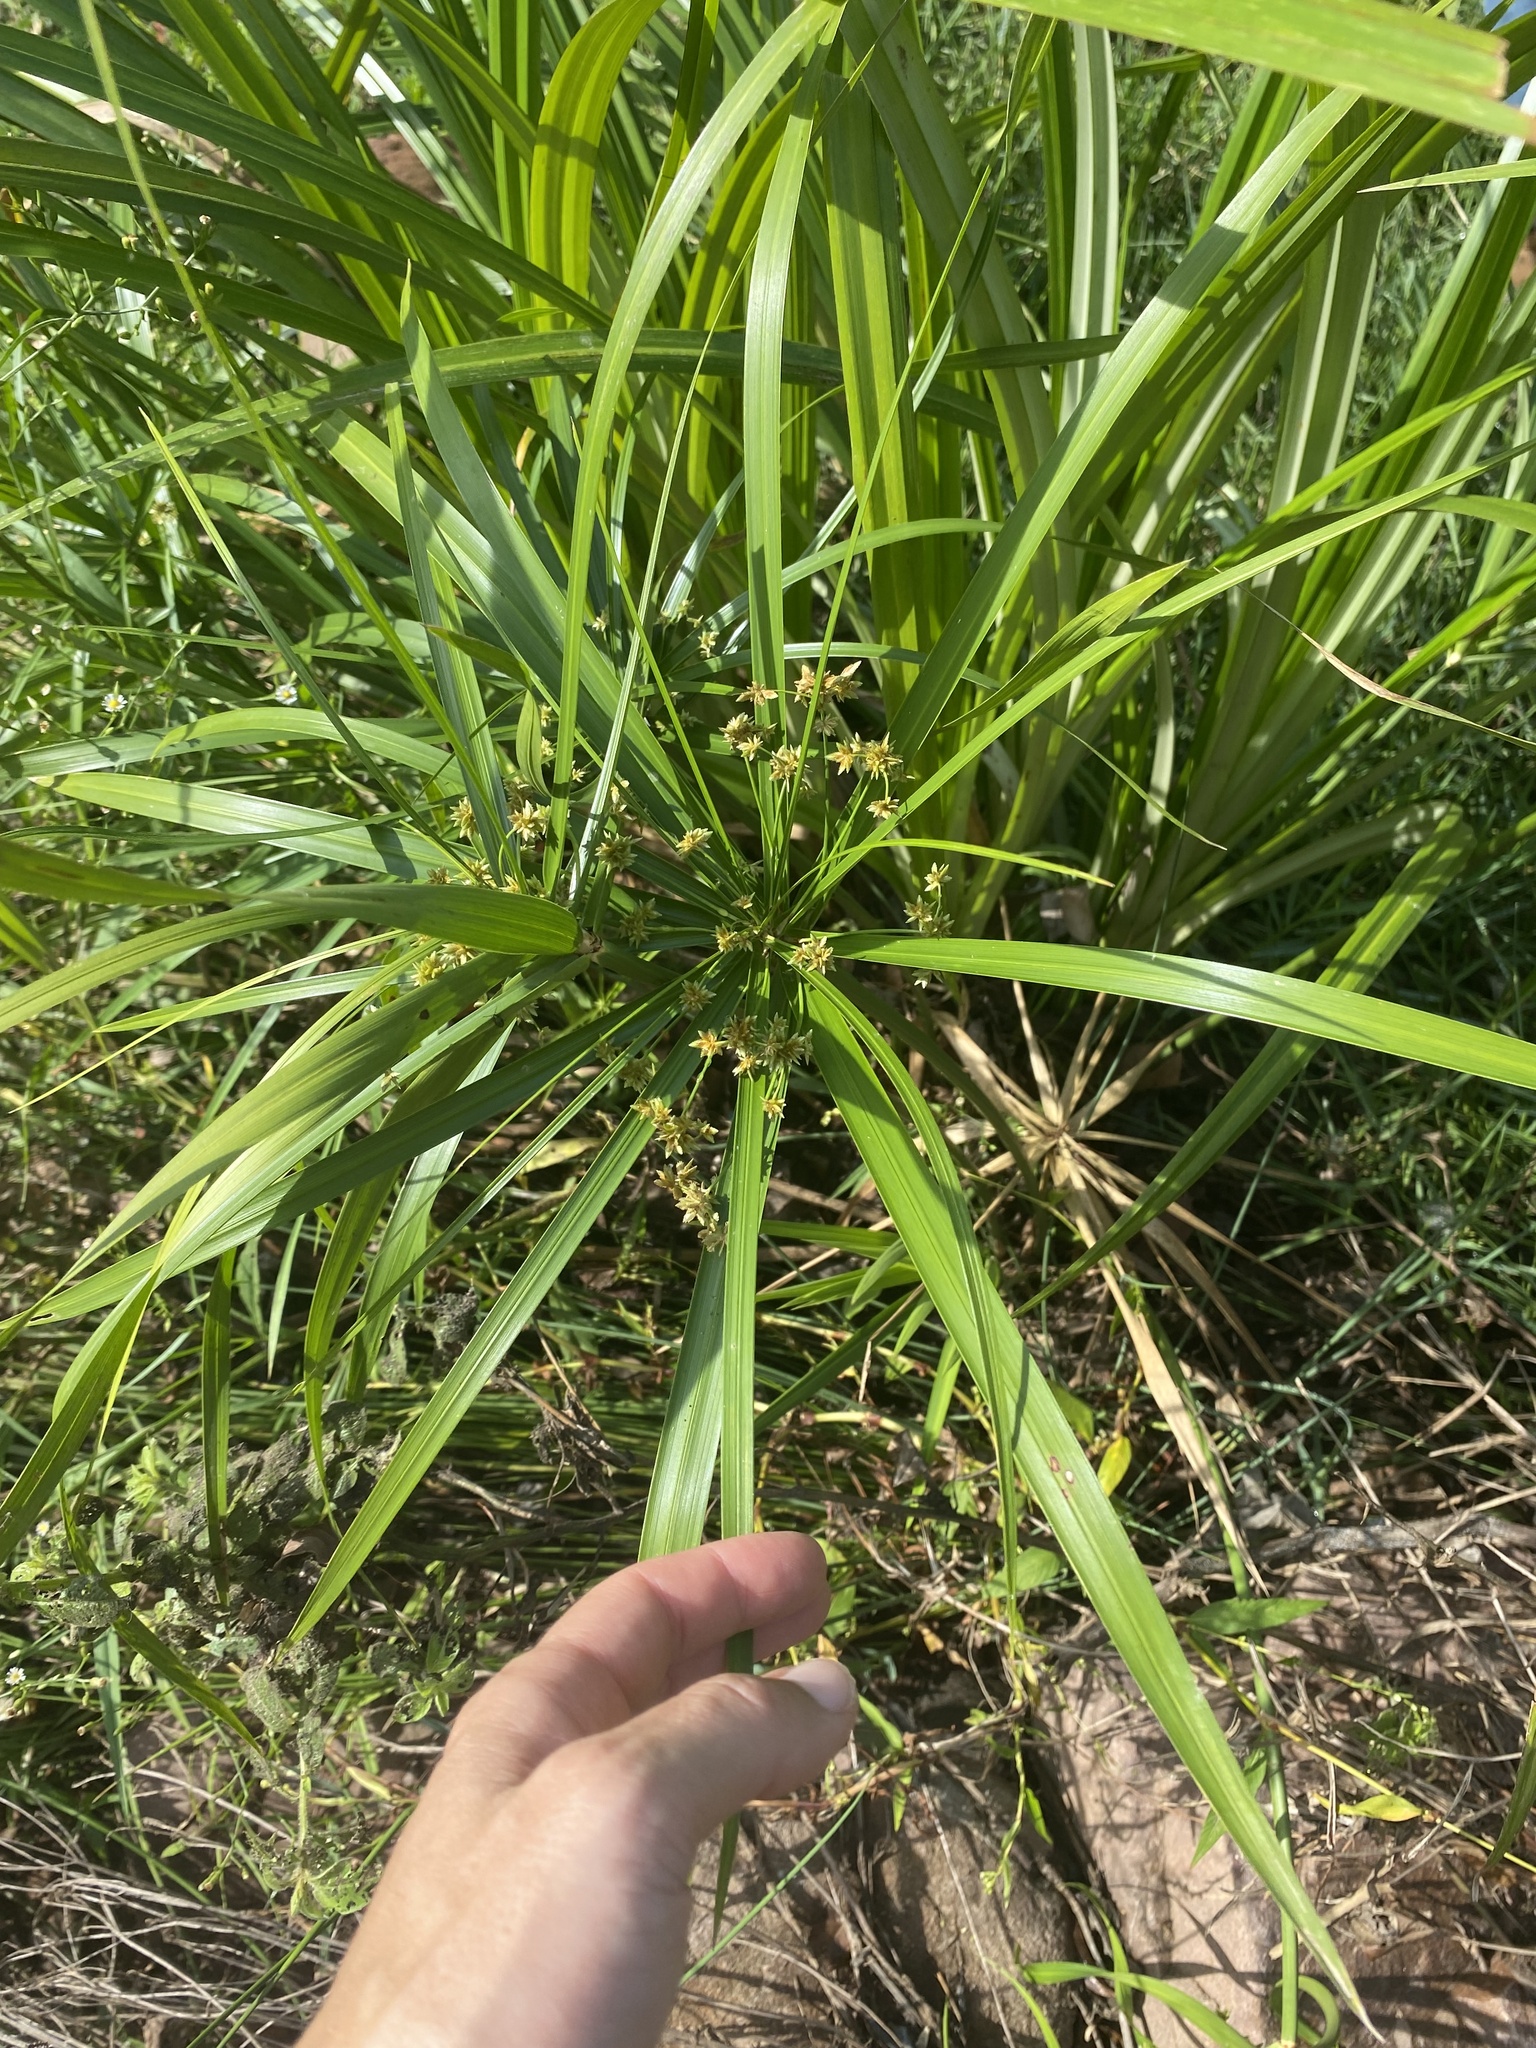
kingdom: Plantae
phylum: Tracheophyta
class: Liliopsida
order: Poales
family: Cyperaceae
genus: Cyperus
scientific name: Cyperus alternifolius
